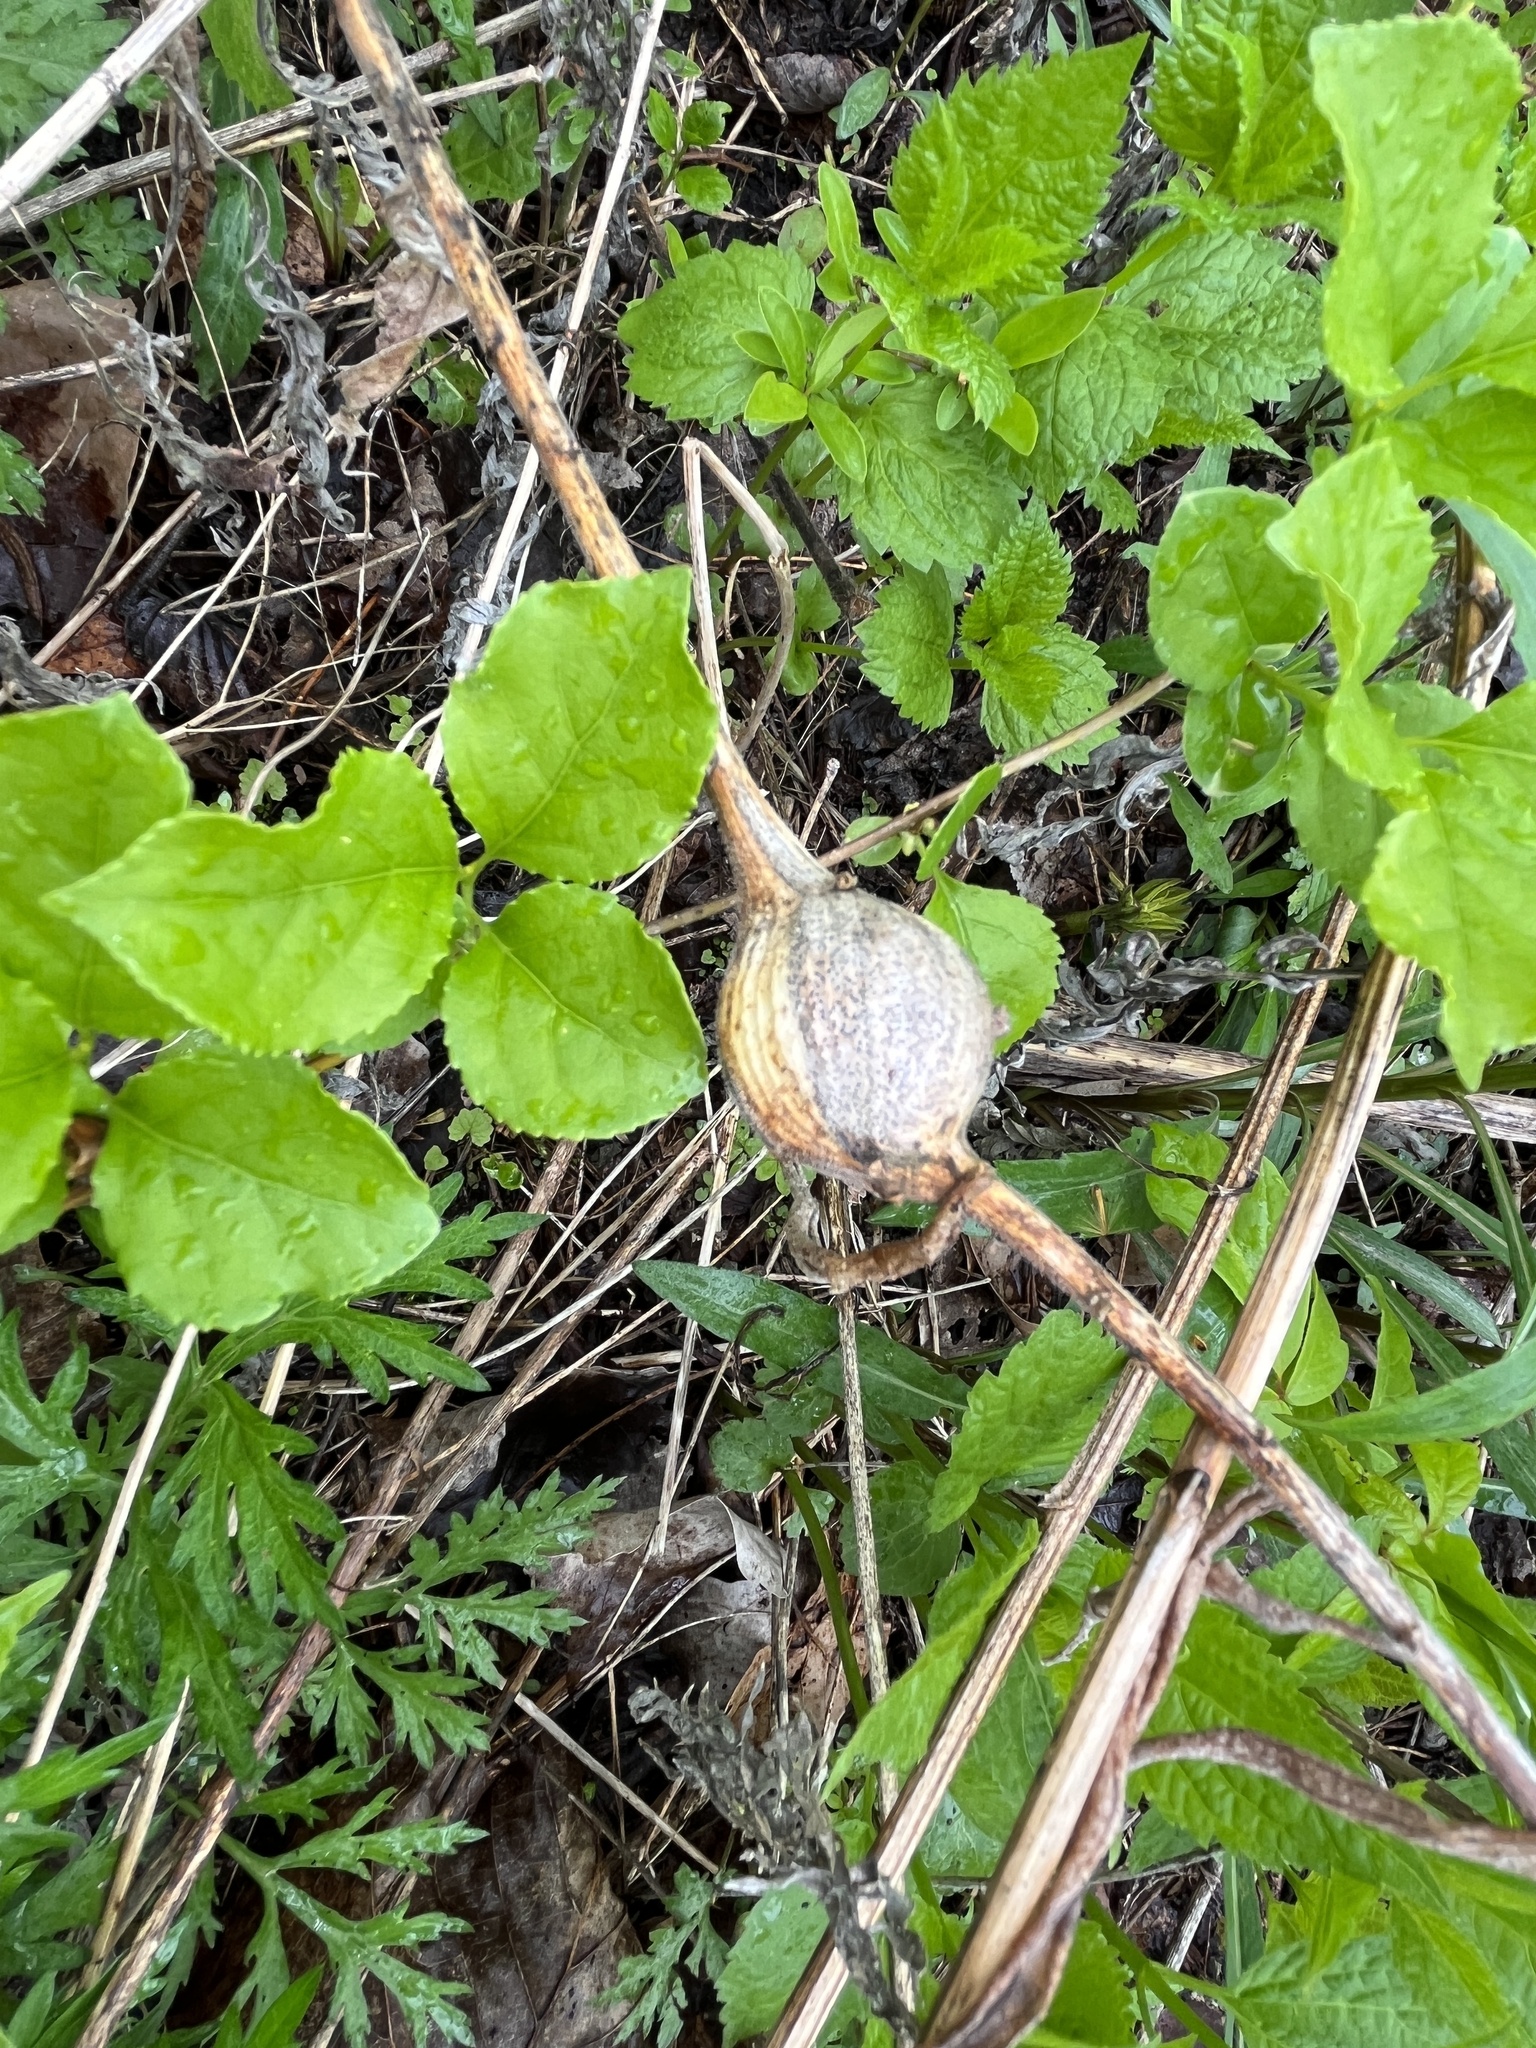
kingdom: Animalia
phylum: Arthropoda
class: Insecta
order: Diptera
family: Tephritidae
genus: Eurosta
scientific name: Eurosta solidaginis
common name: Goldenrod gall fly
